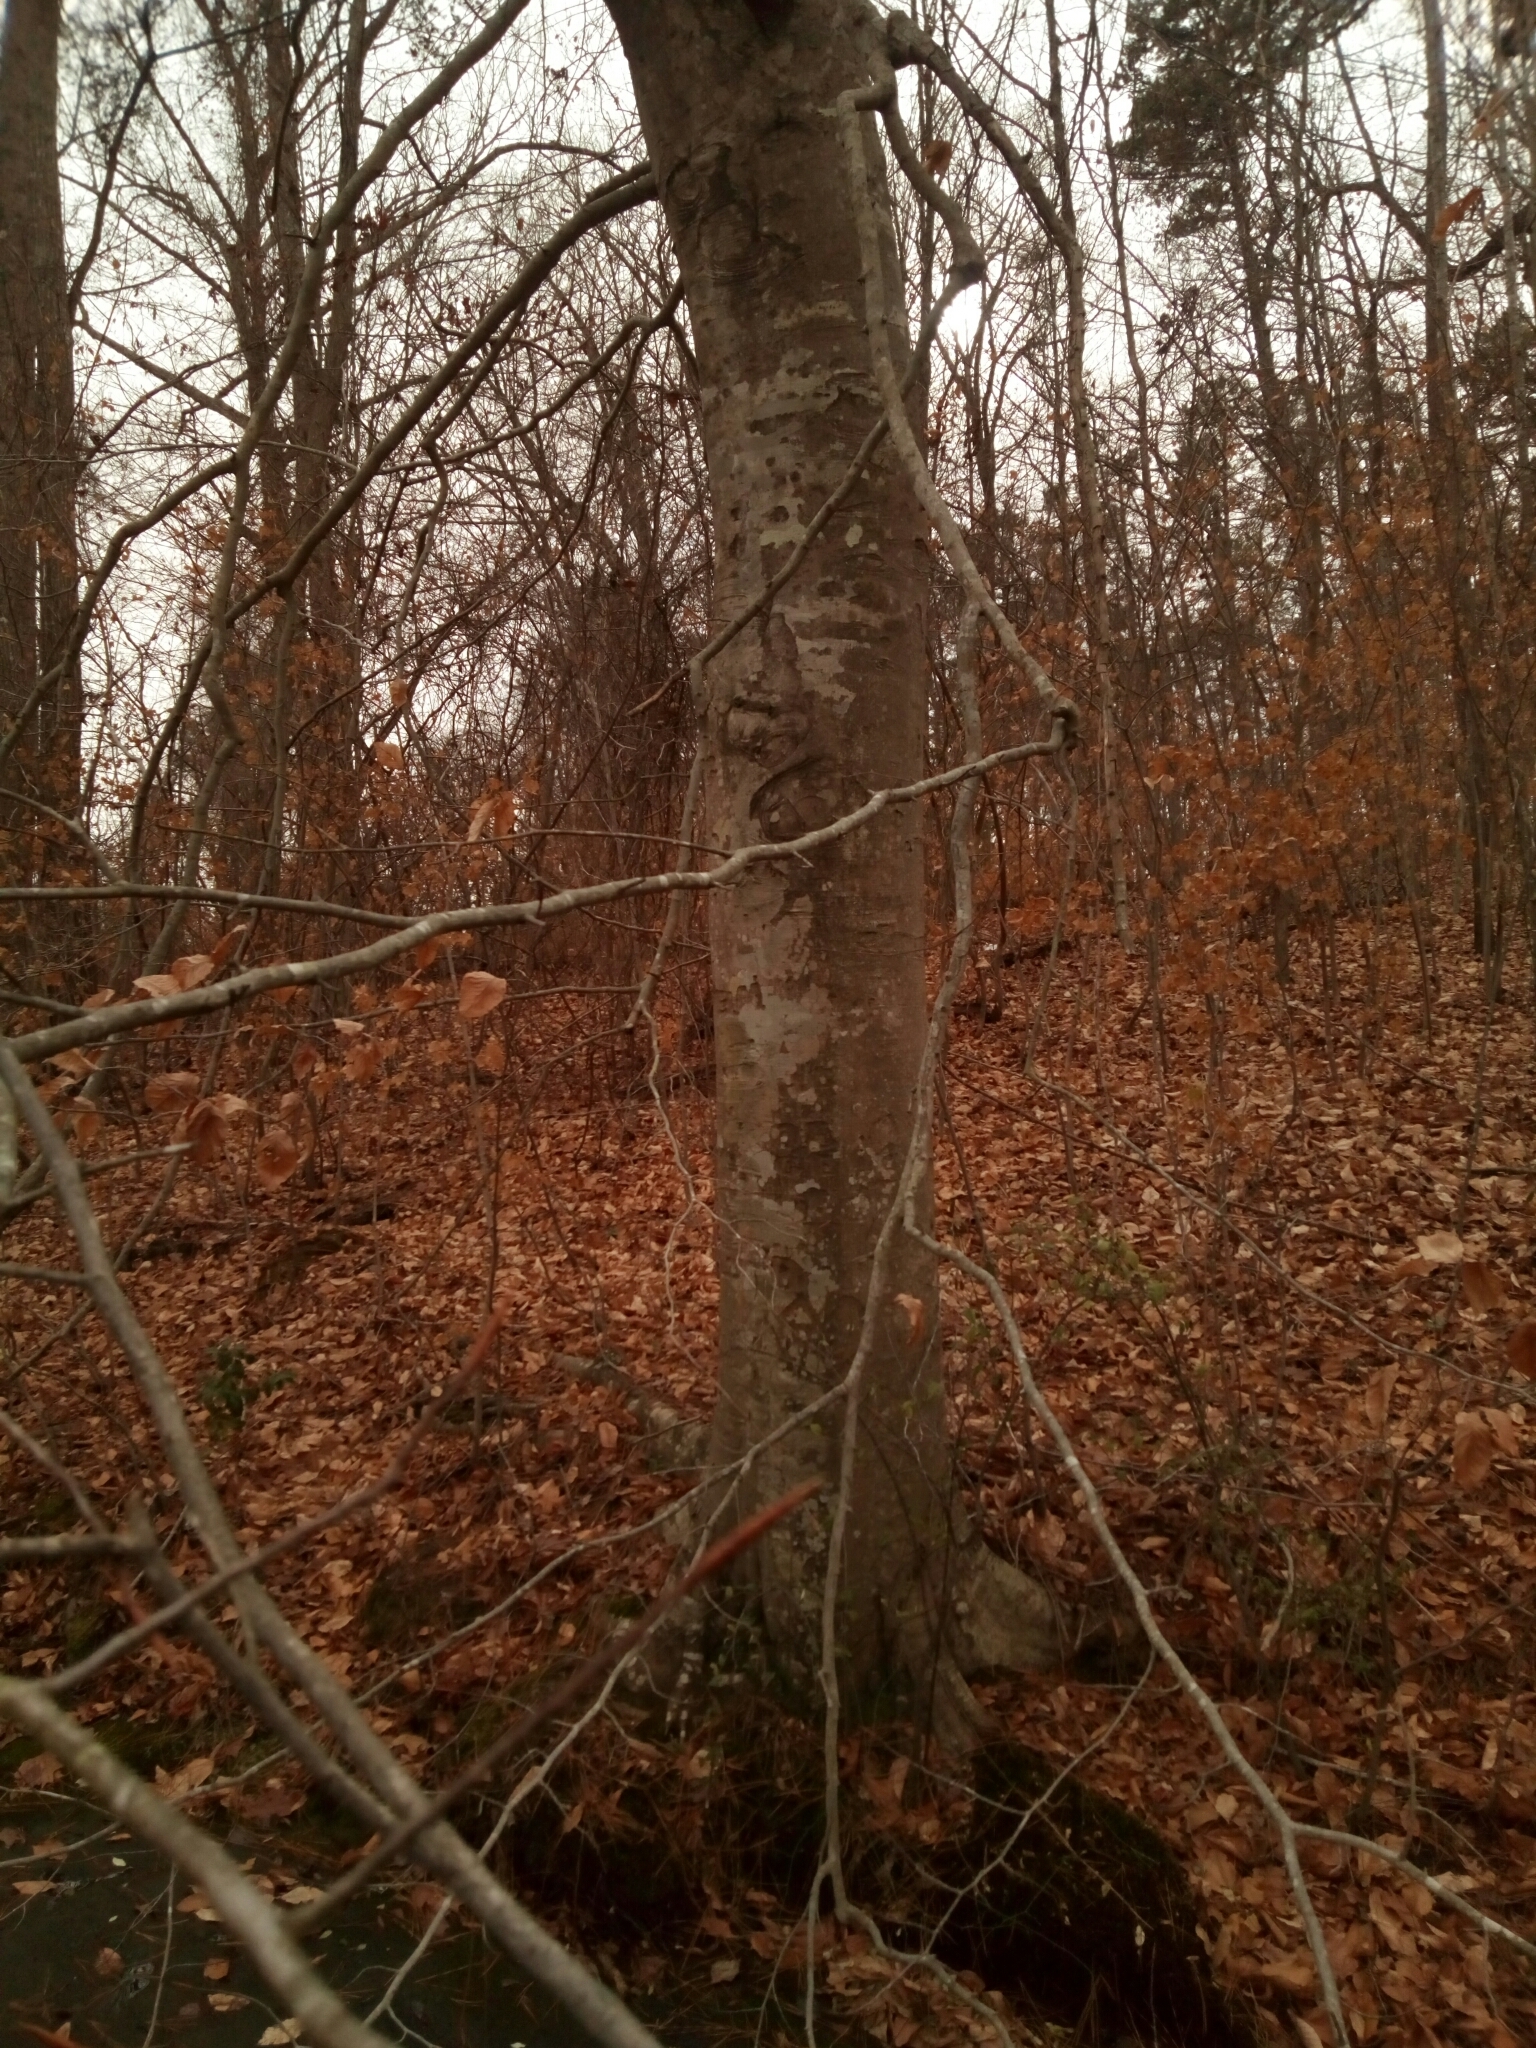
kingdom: Plantae
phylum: Tracheophyta
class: Magnoliopsida
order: Fagales
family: Fagaceae
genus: Fagus
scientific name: Fagus grandifolia
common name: American beech
